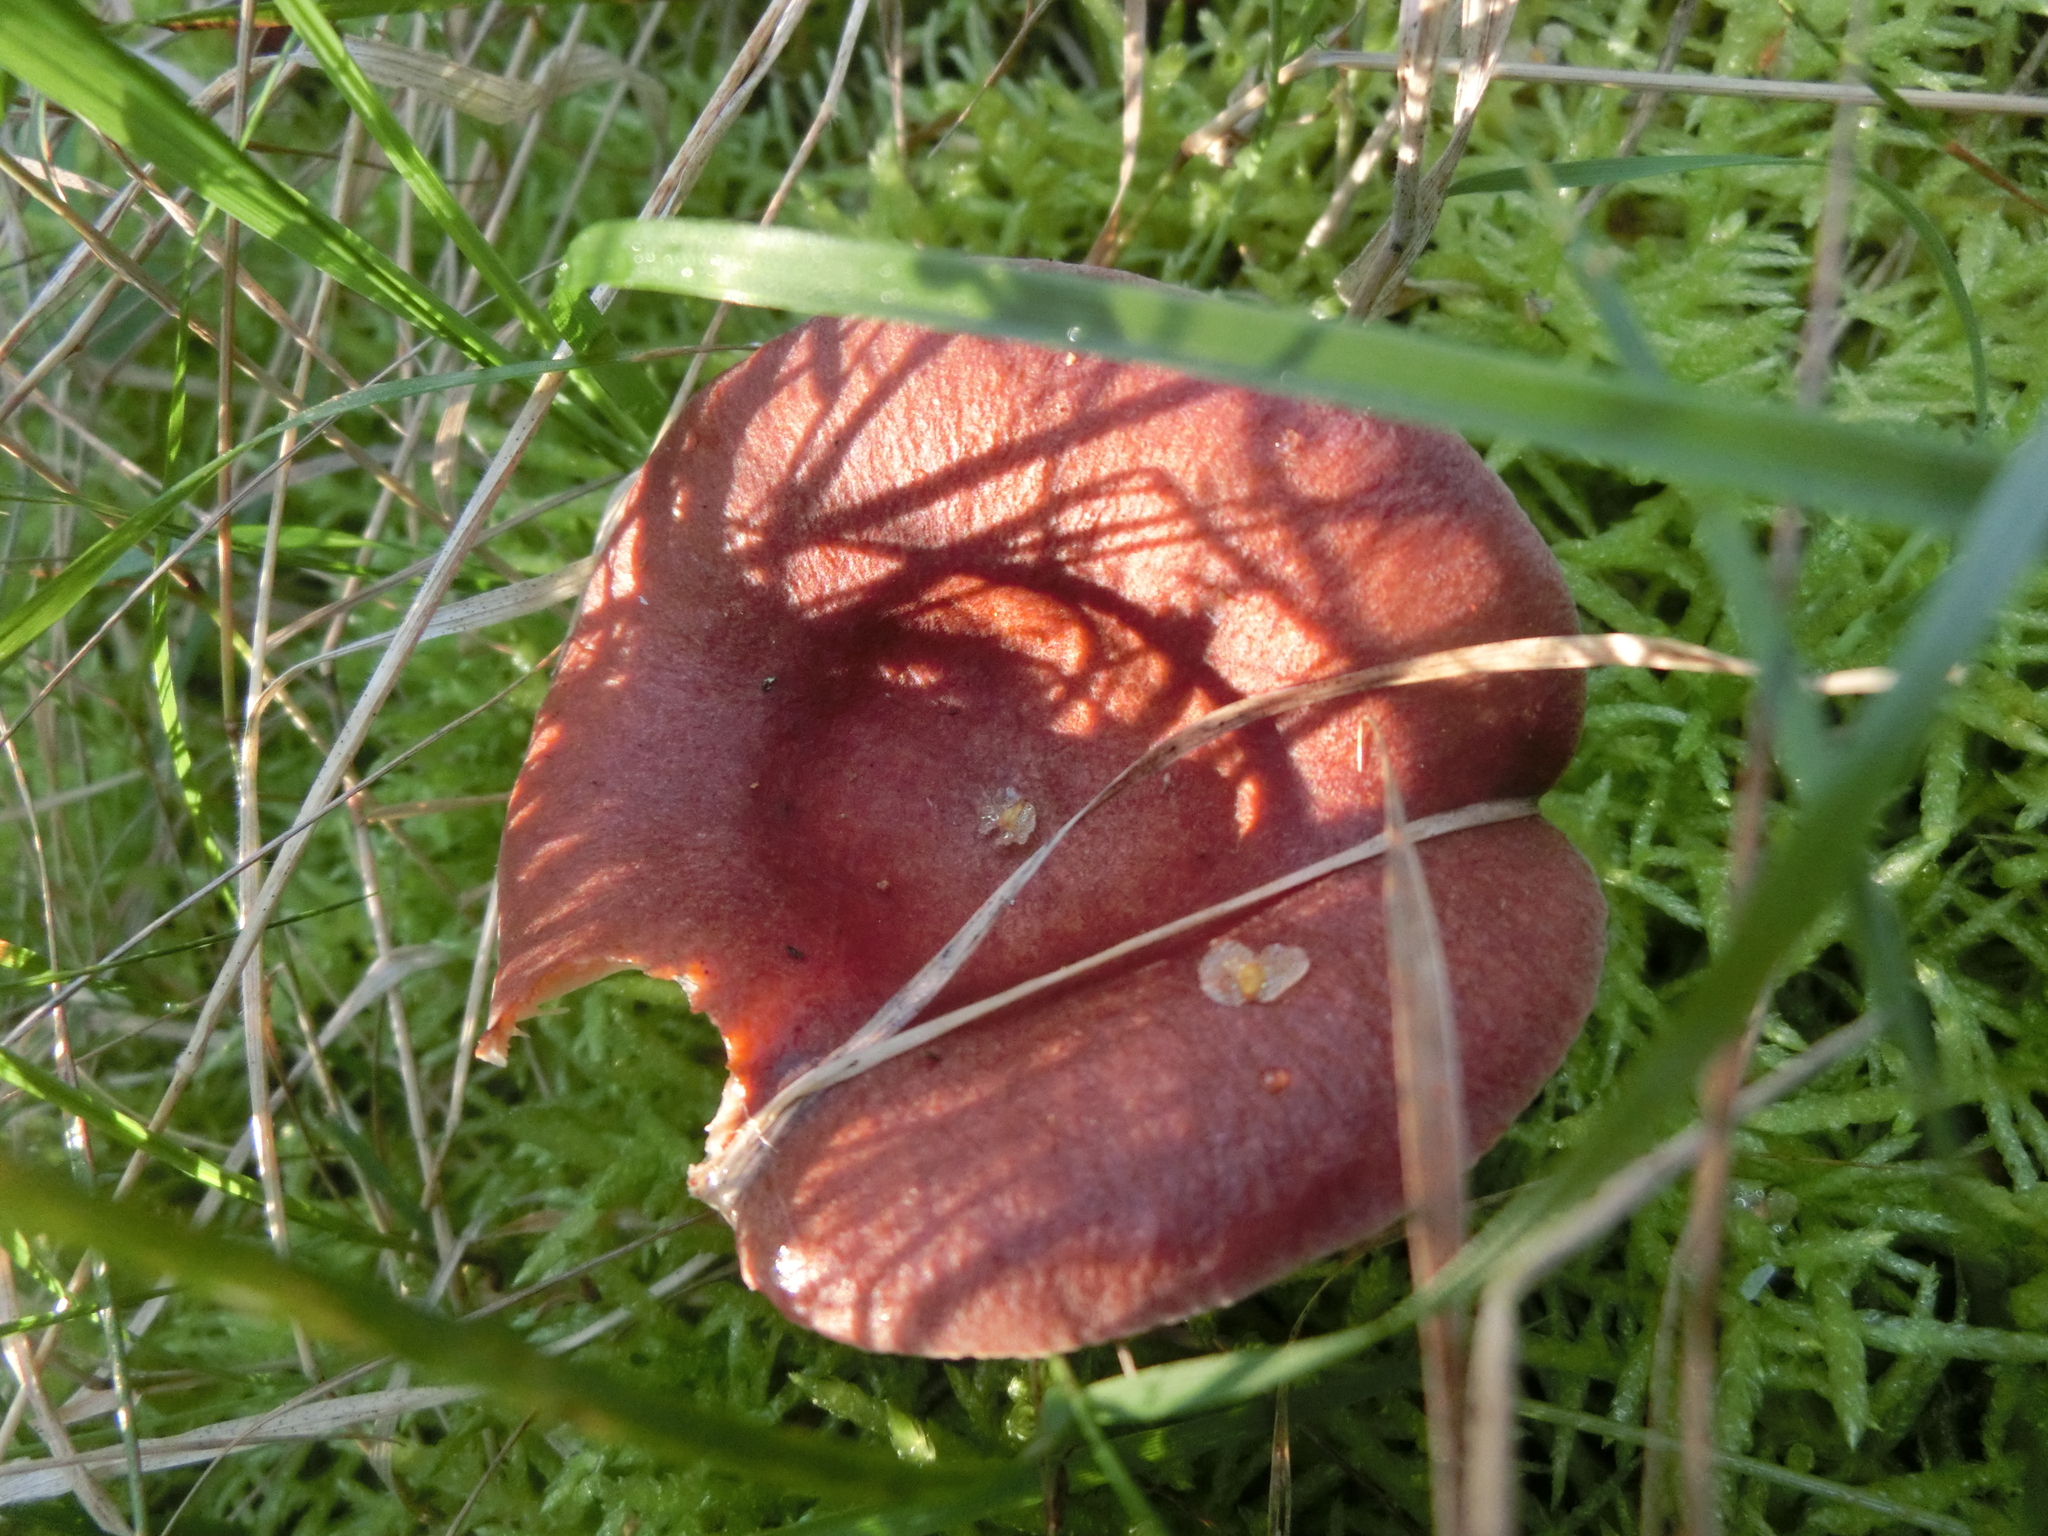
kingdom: Fungi
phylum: Basidiomycota
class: Agaricomycetes
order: Russulales
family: Russulaceae
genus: Lactarius
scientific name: Lactarius rufus
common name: Rufous milk-cap
